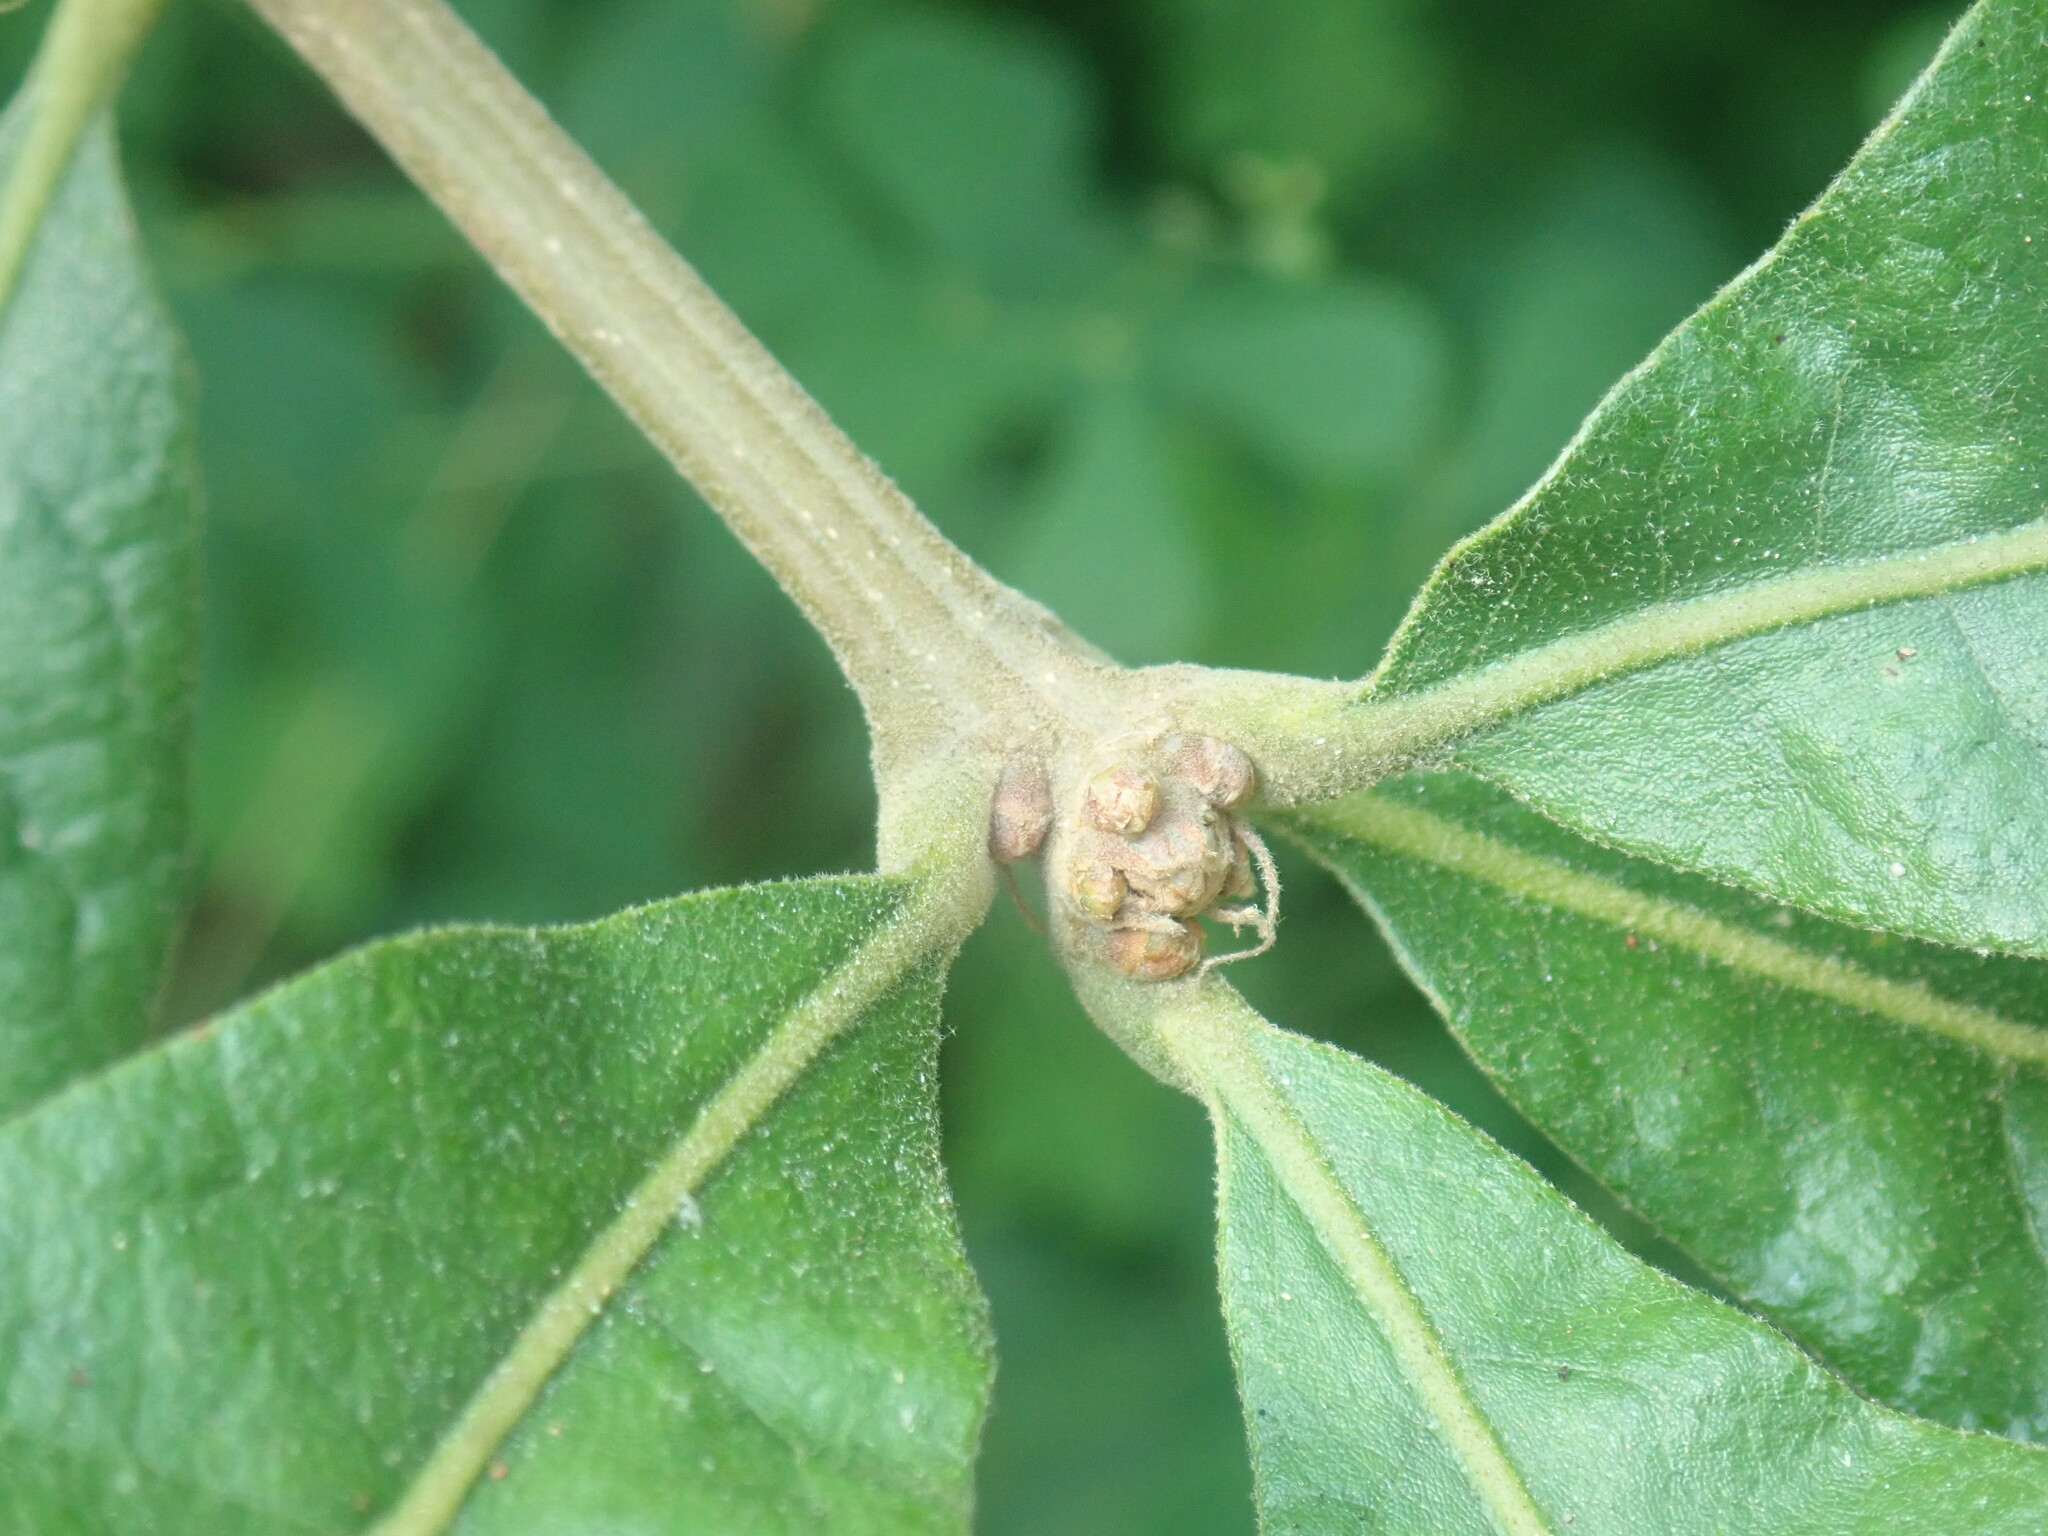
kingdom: Plantae
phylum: Tracheophyta
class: Magnoliopsida
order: Fagales
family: Fagaceae
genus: Quercus
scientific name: Quercus stellata
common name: Post oak
